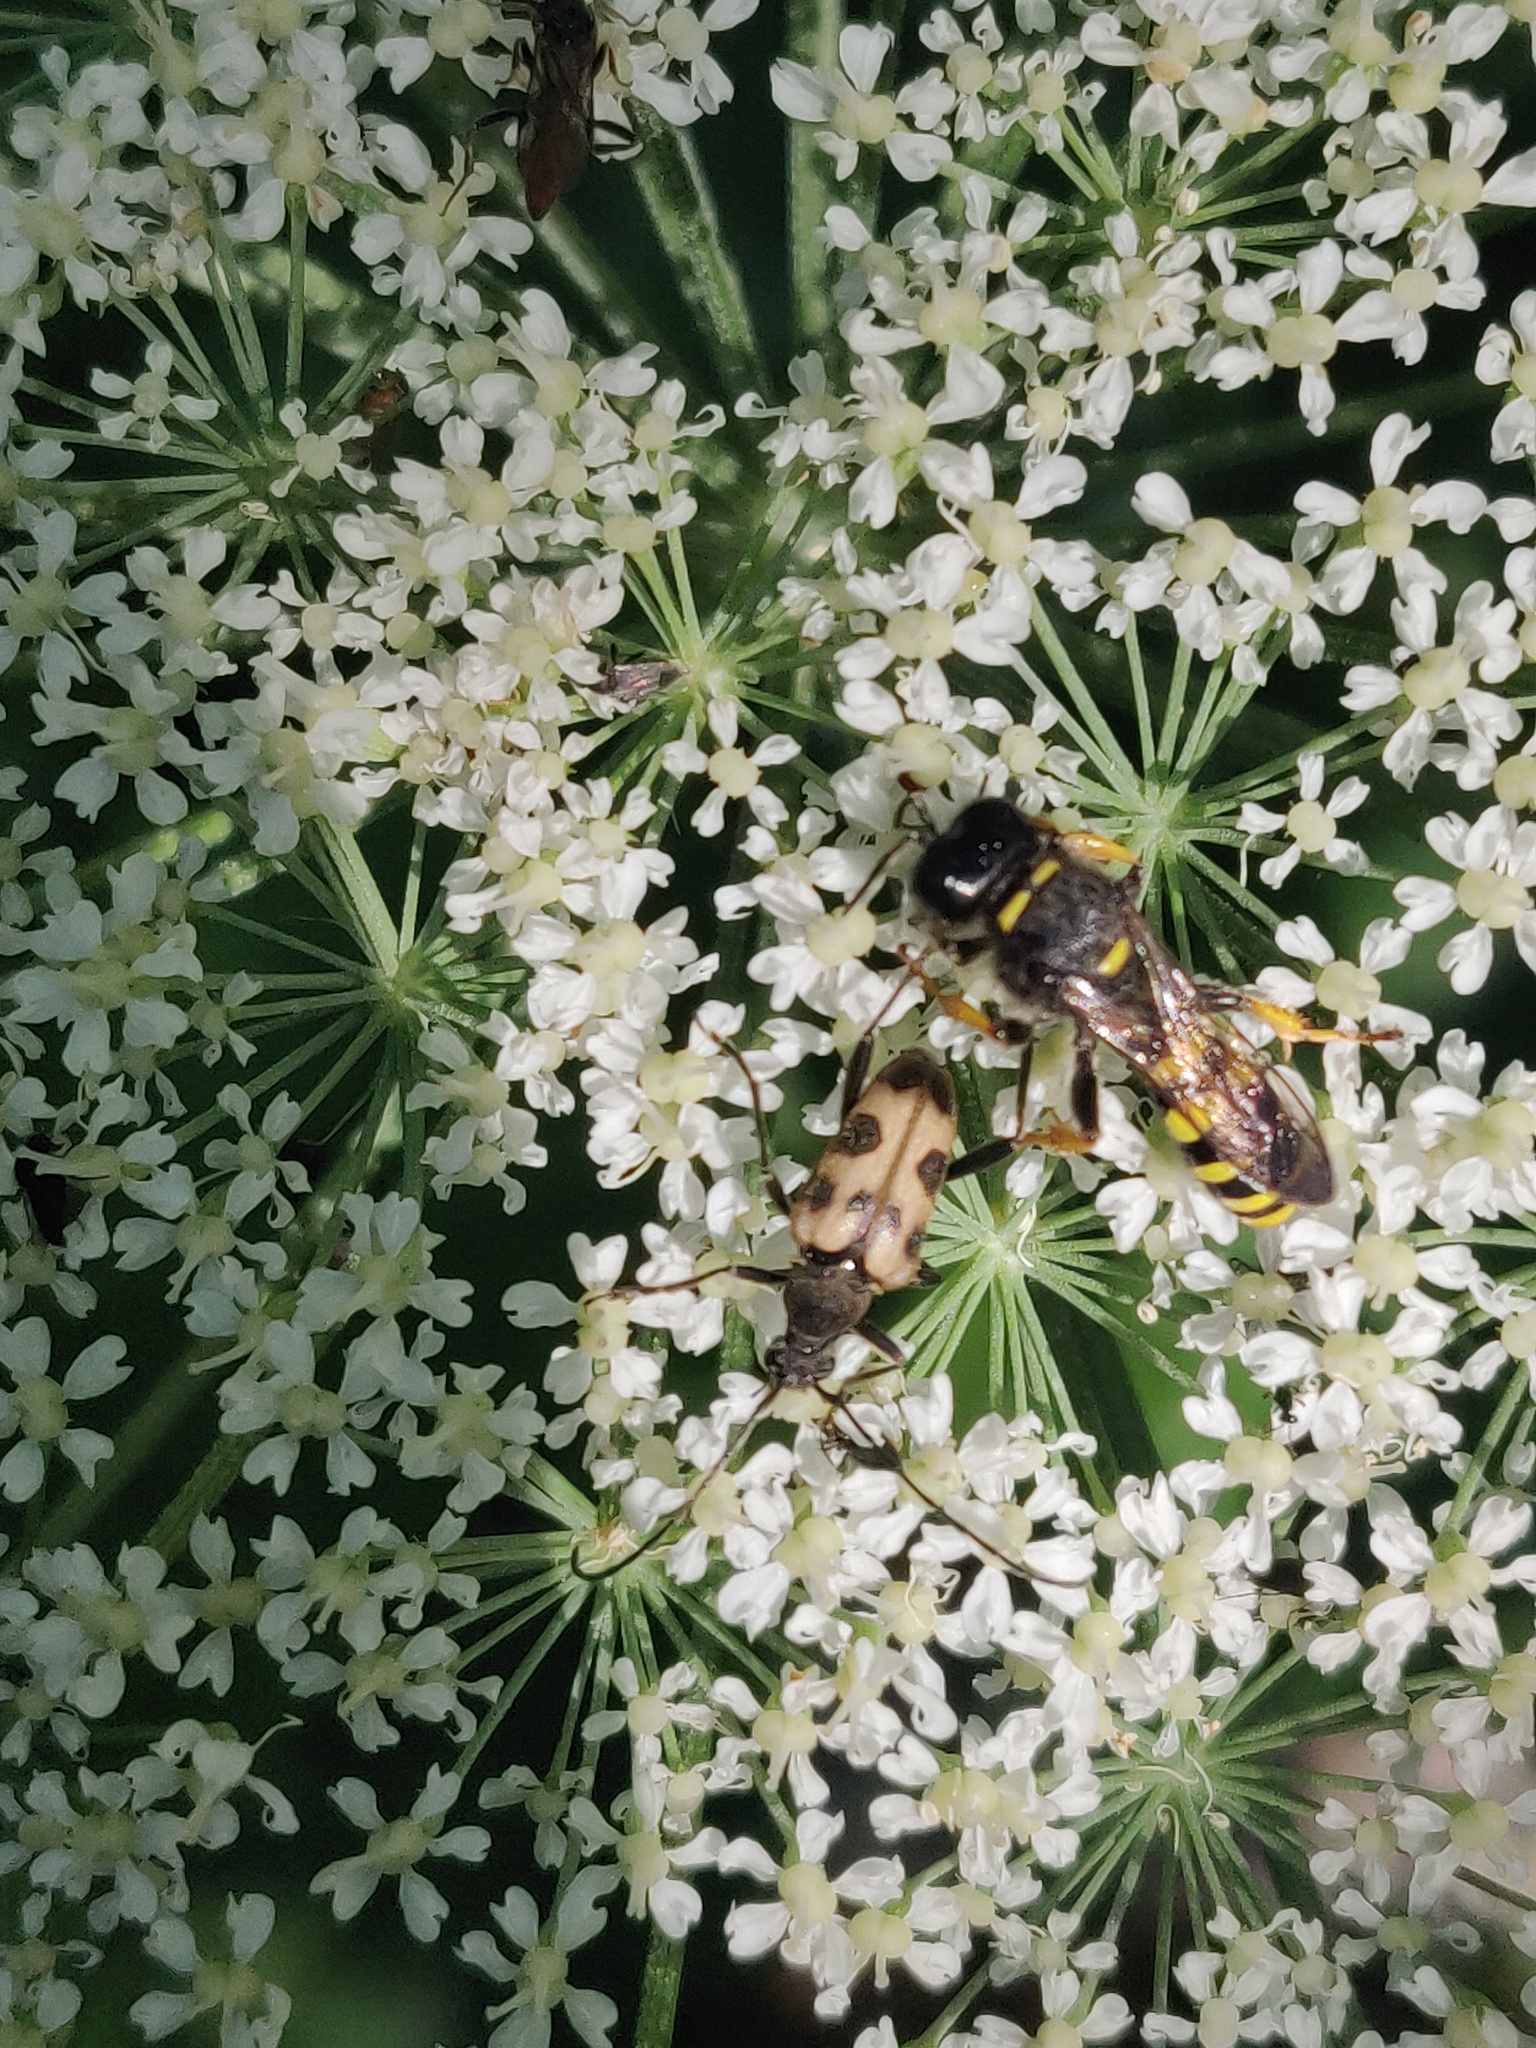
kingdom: Animalia
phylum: Arthropoda
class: Insecta
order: Coleoptera
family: Cerambycidae
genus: Pachytodes
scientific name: Pachytodes cerambyciformis
